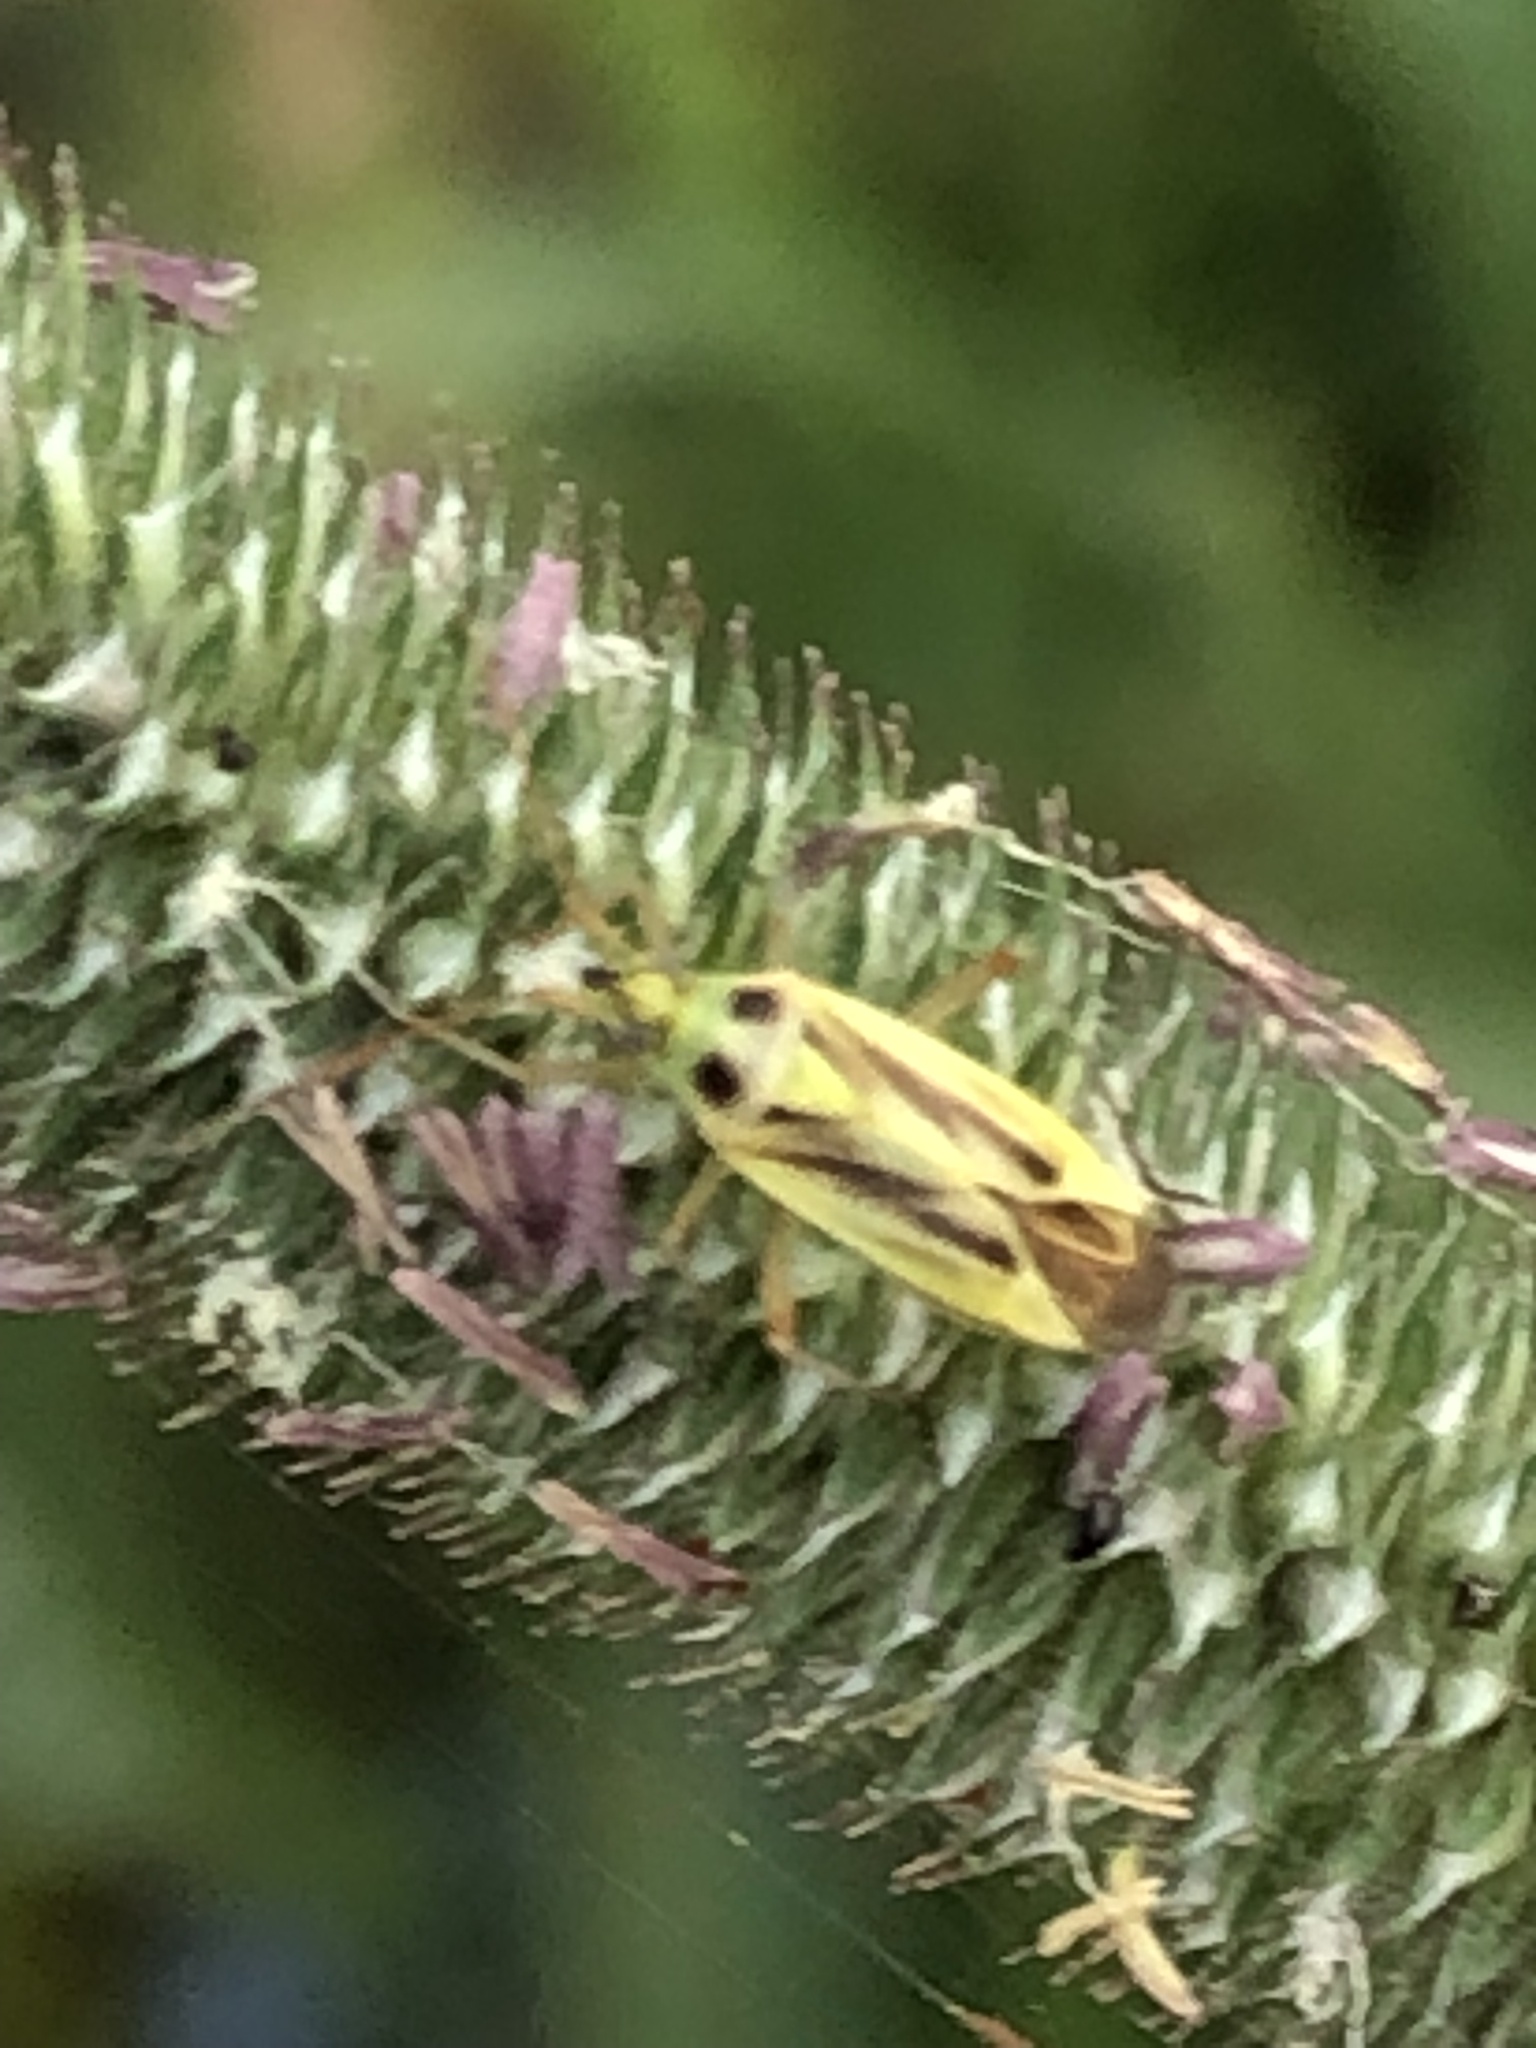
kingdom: Animalia
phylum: Arthropoda
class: Insecta
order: Hemiptera
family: Miridae
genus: Stenotus
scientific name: Stenotus binotatus
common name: Plant bug
